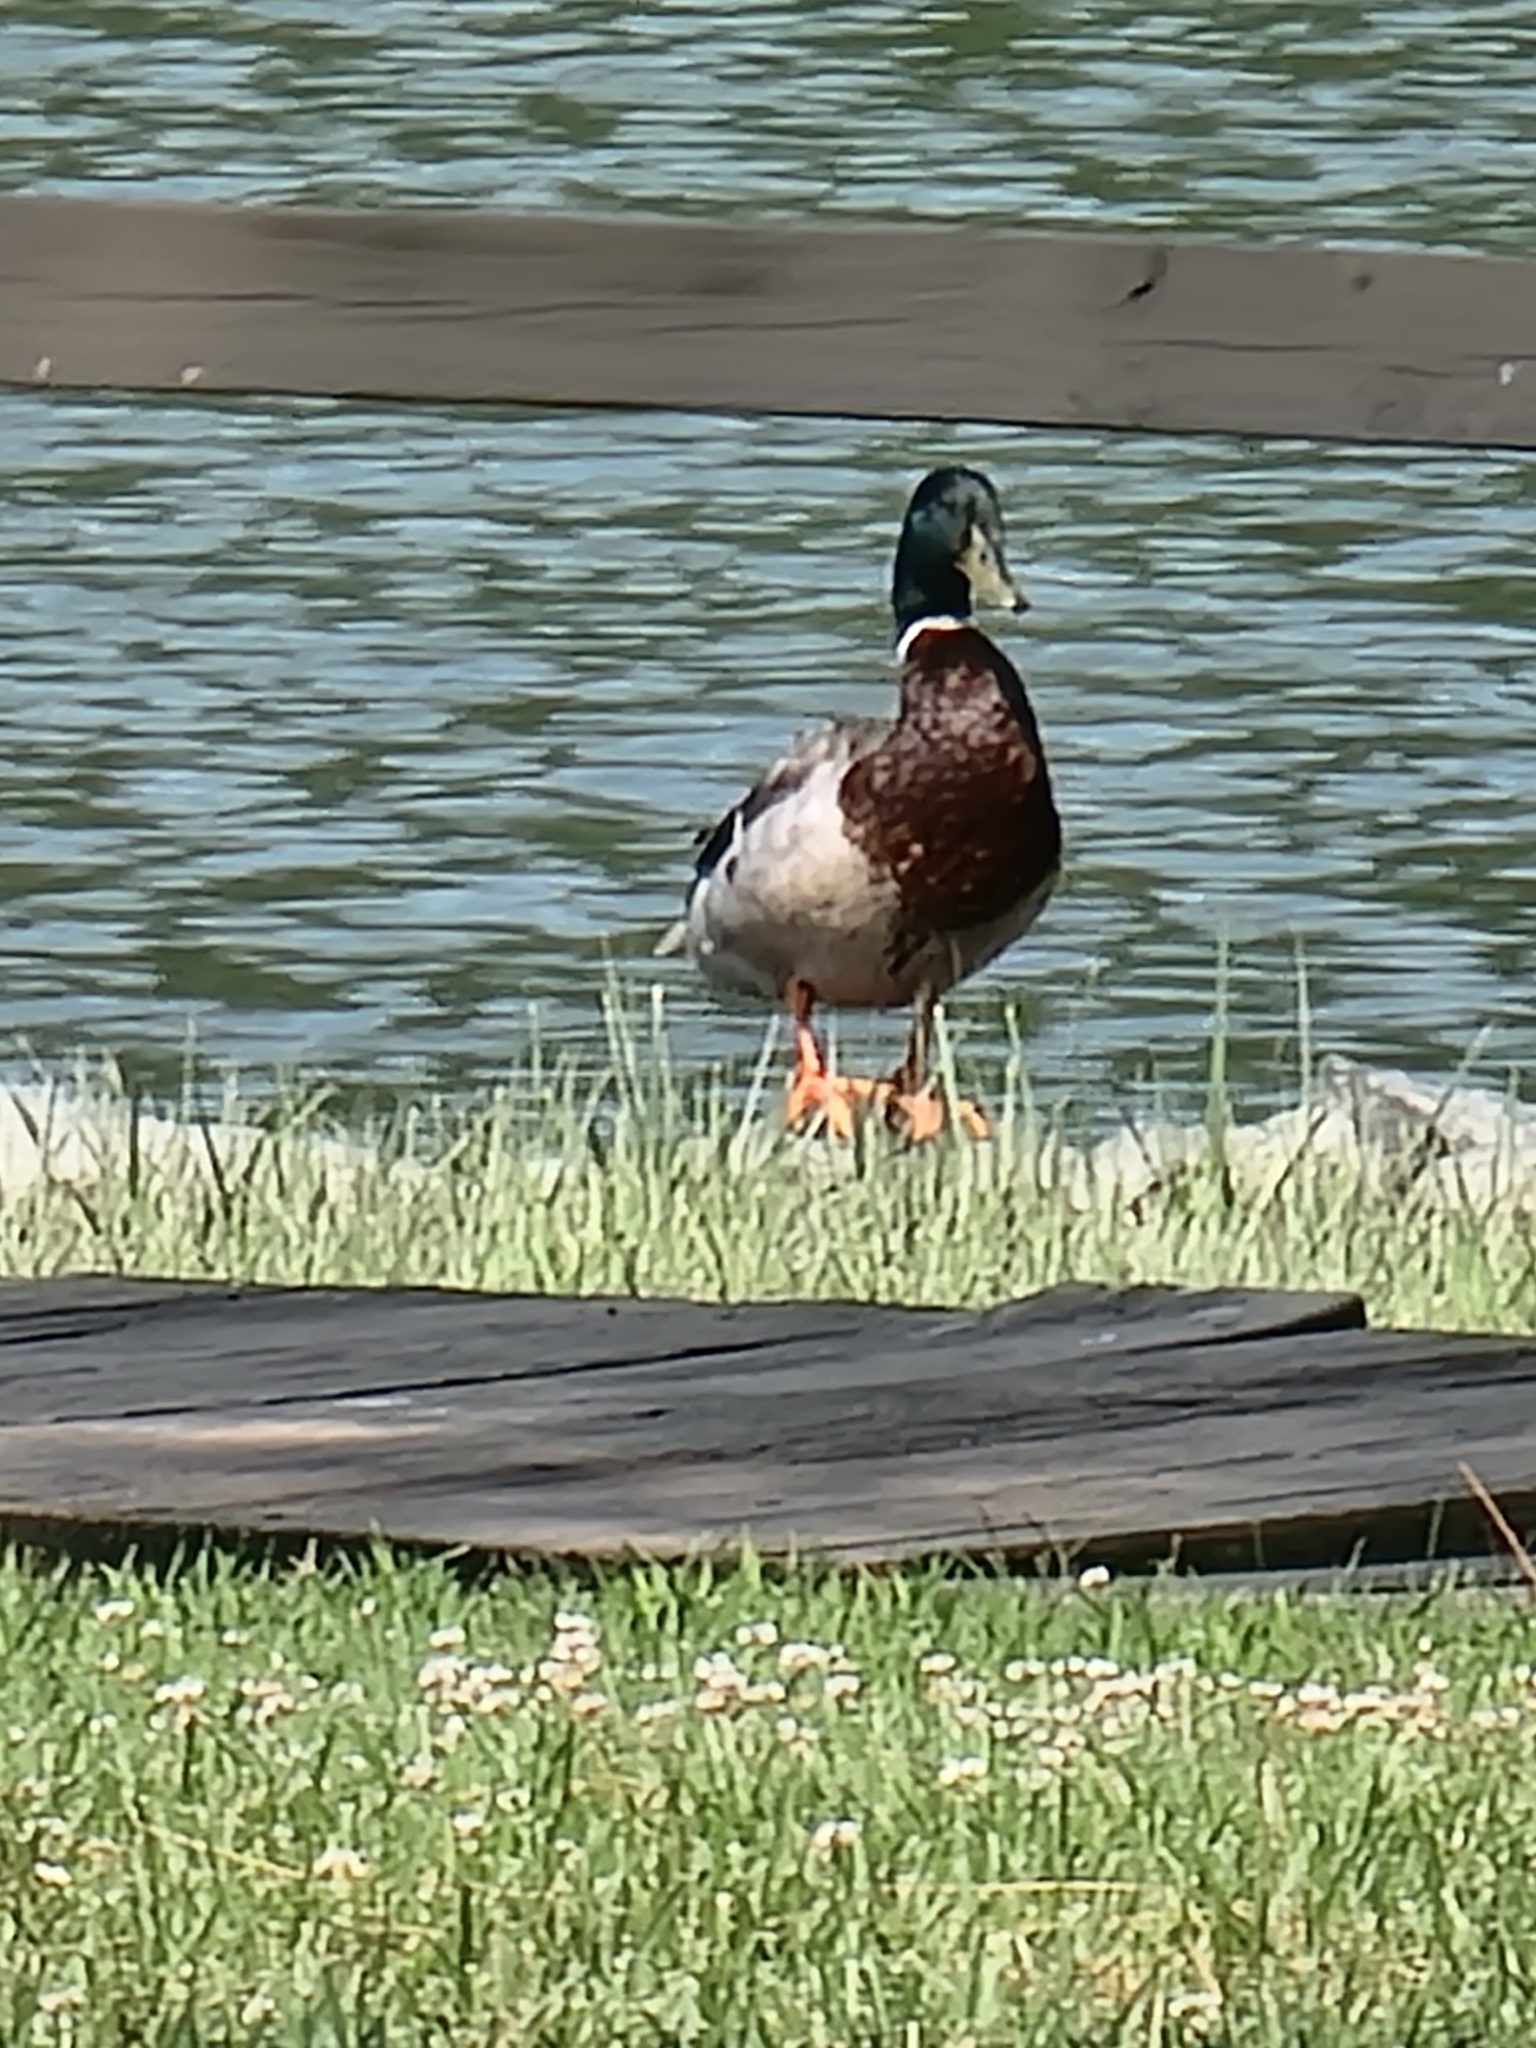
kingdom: Animalia
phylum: Chordata
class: Aves
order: Anseriformes
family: Anatidae
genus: Anas
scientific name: Anas platyrhynchos
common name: Mallard
